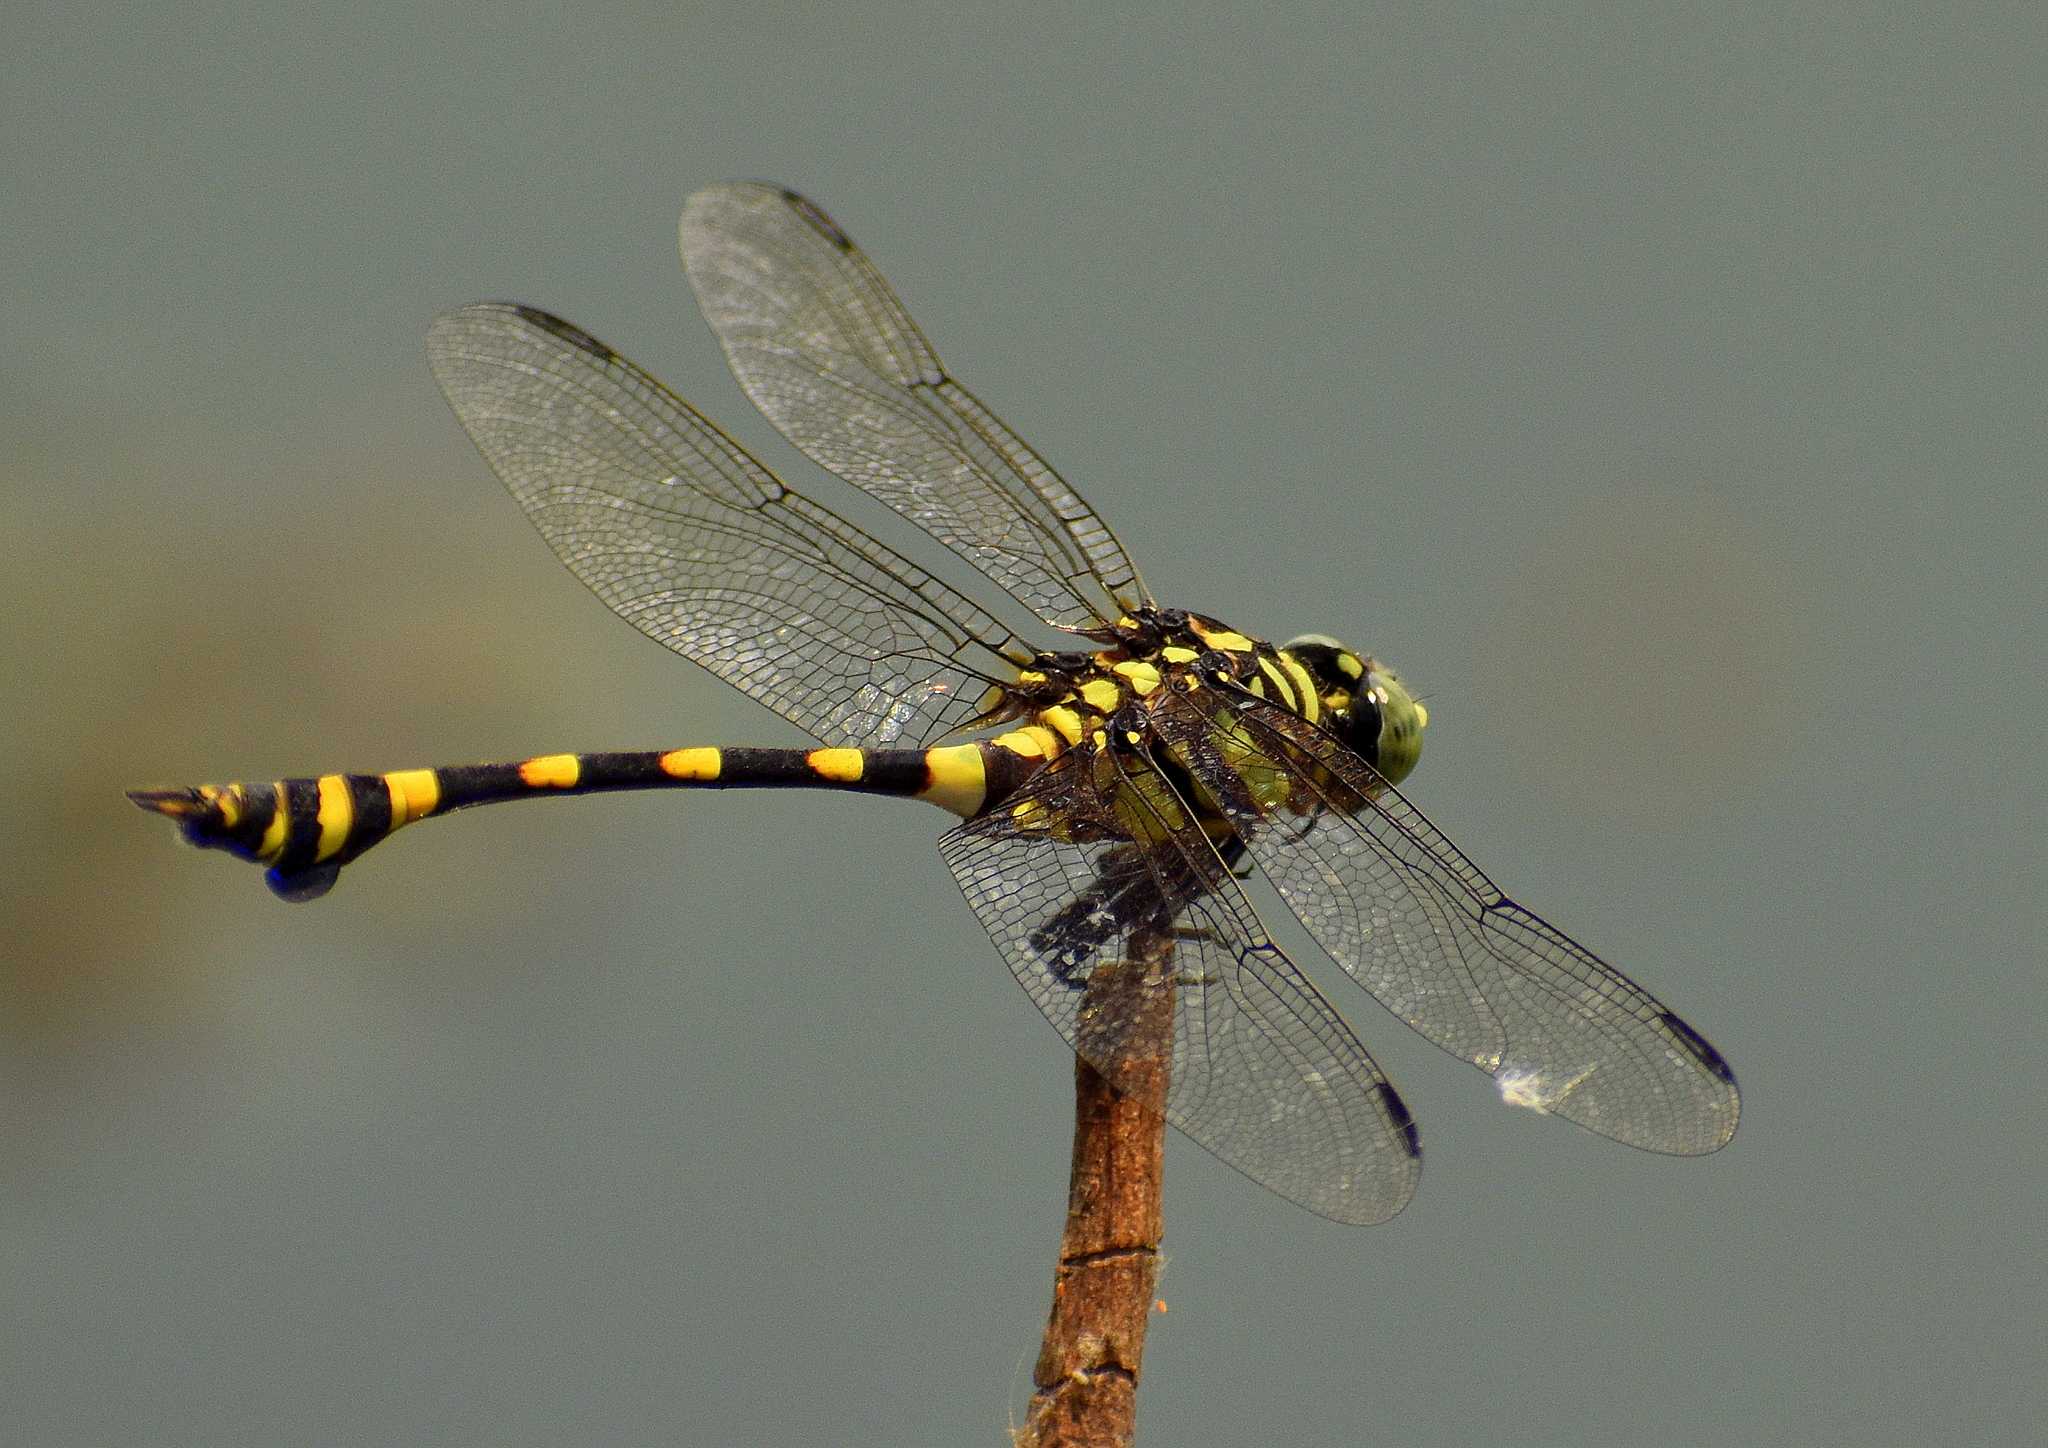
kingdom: Animalia
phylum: Arthropoda
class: Insecta
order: Odonata
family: Gomphidae
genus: Ictinogomphus
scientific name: Ictinogomphus rapax
